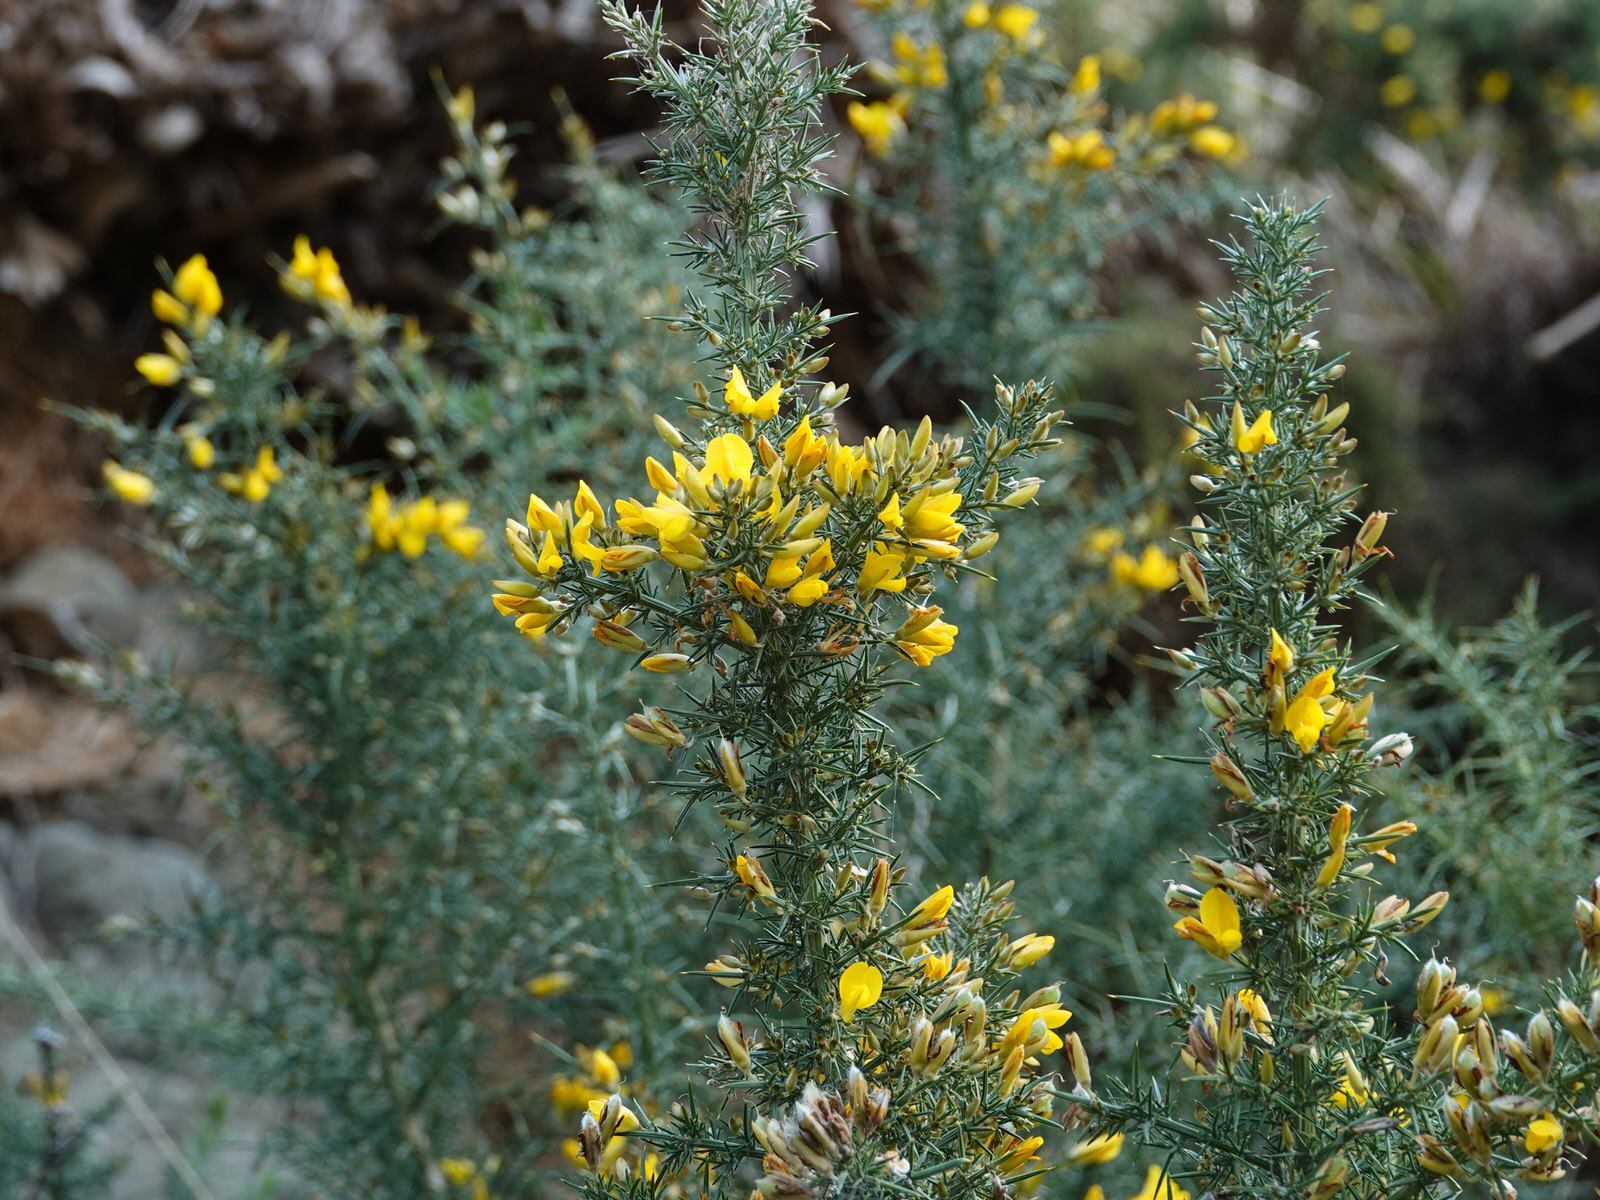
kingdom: Plantae
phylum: Tracheophyta
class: Magnoliopsida
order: Fabales
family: Fabaceae
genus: Ulex
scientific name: Ulex europaeus
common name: Common gorse
